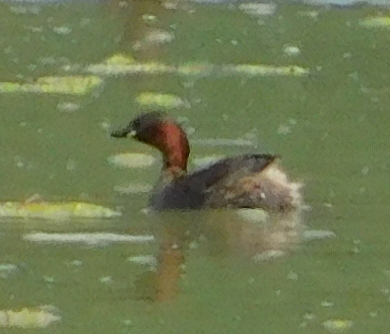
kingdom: Animalia
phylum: Chordata
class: Aves
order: Podicipediformes
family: Podicipedidae
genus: Tachybaptus
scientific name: Tachybaptus ruficollis
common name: Little grebe
